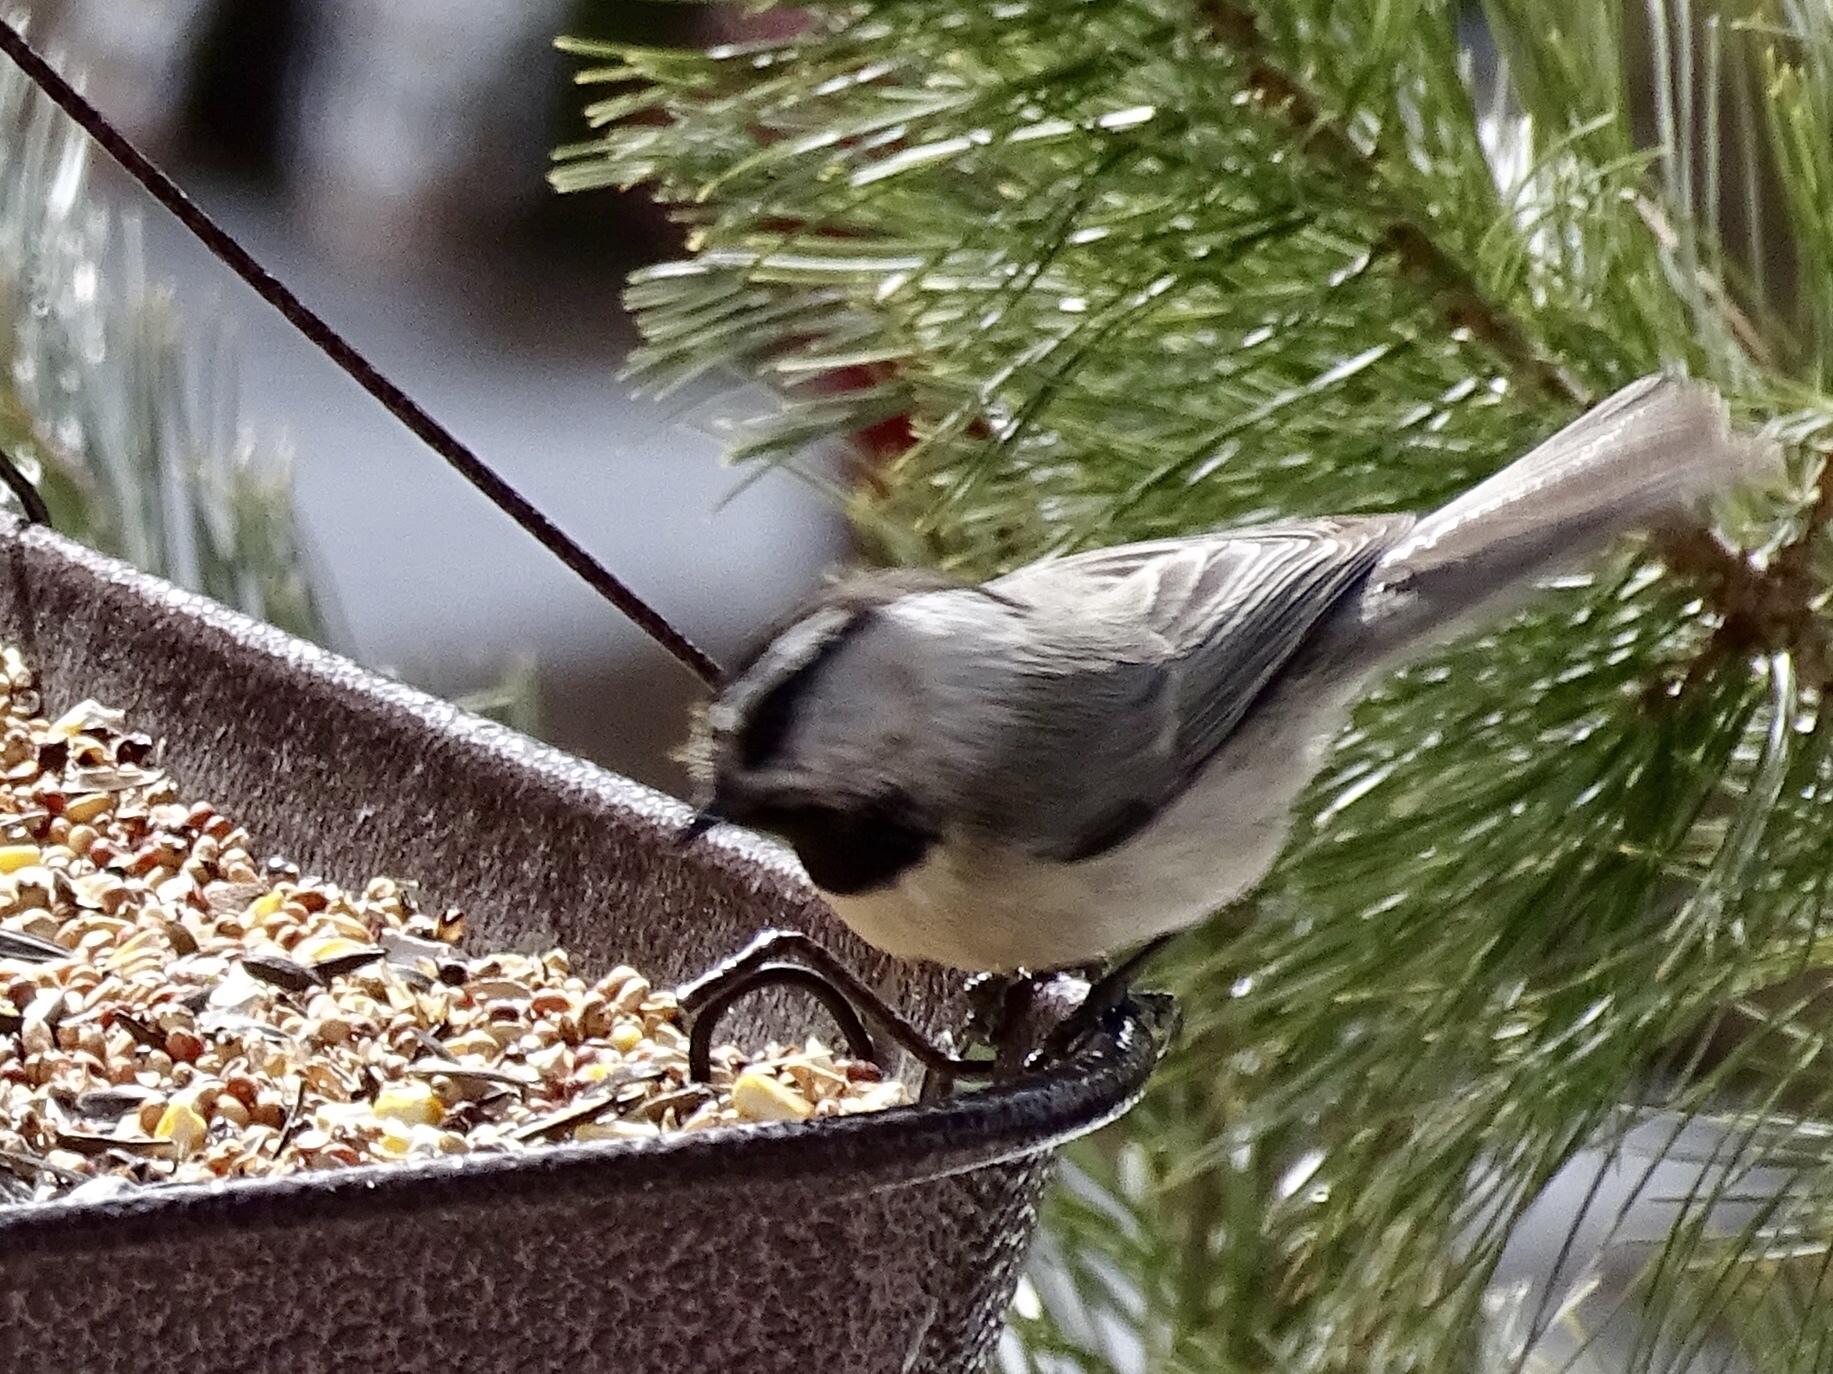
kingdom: Animalia
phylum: Chordata
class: Aves
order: Passeriformes
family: Paridae
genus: Poecile
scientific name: Poecile gambeli
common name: Mountain chickadee
